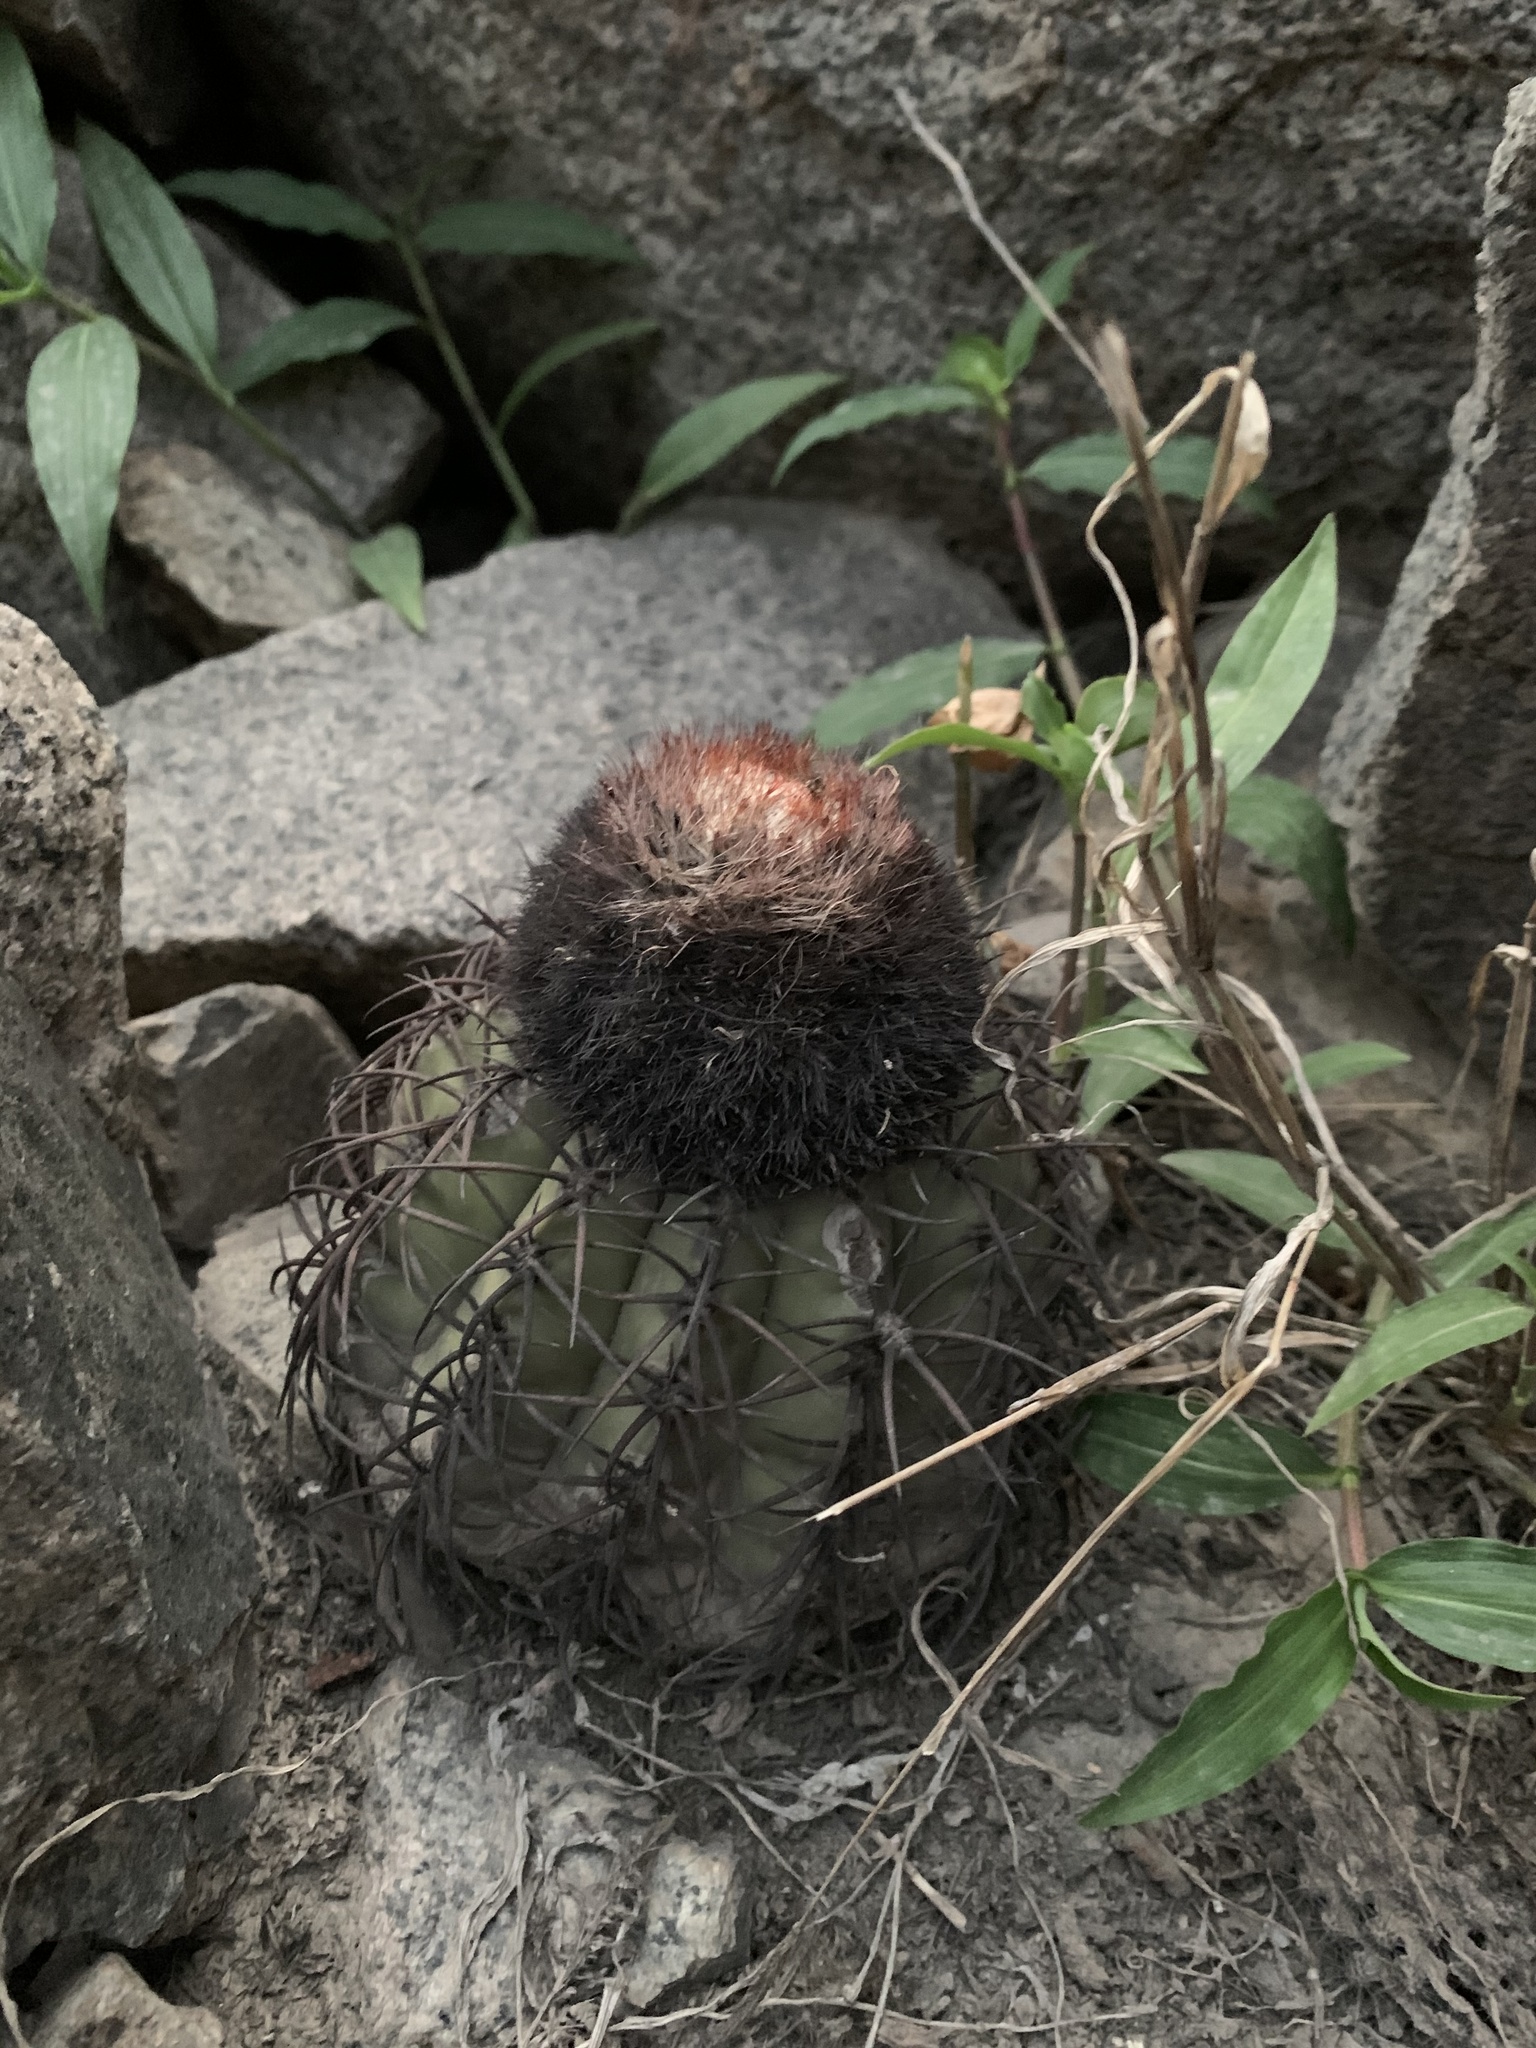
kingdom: Plantae
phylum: Tracheophyta
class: Magnoliopsida
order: Caryophyllales
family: Cactaceae
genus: Melocactus
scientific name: Melocactus peruvianus
